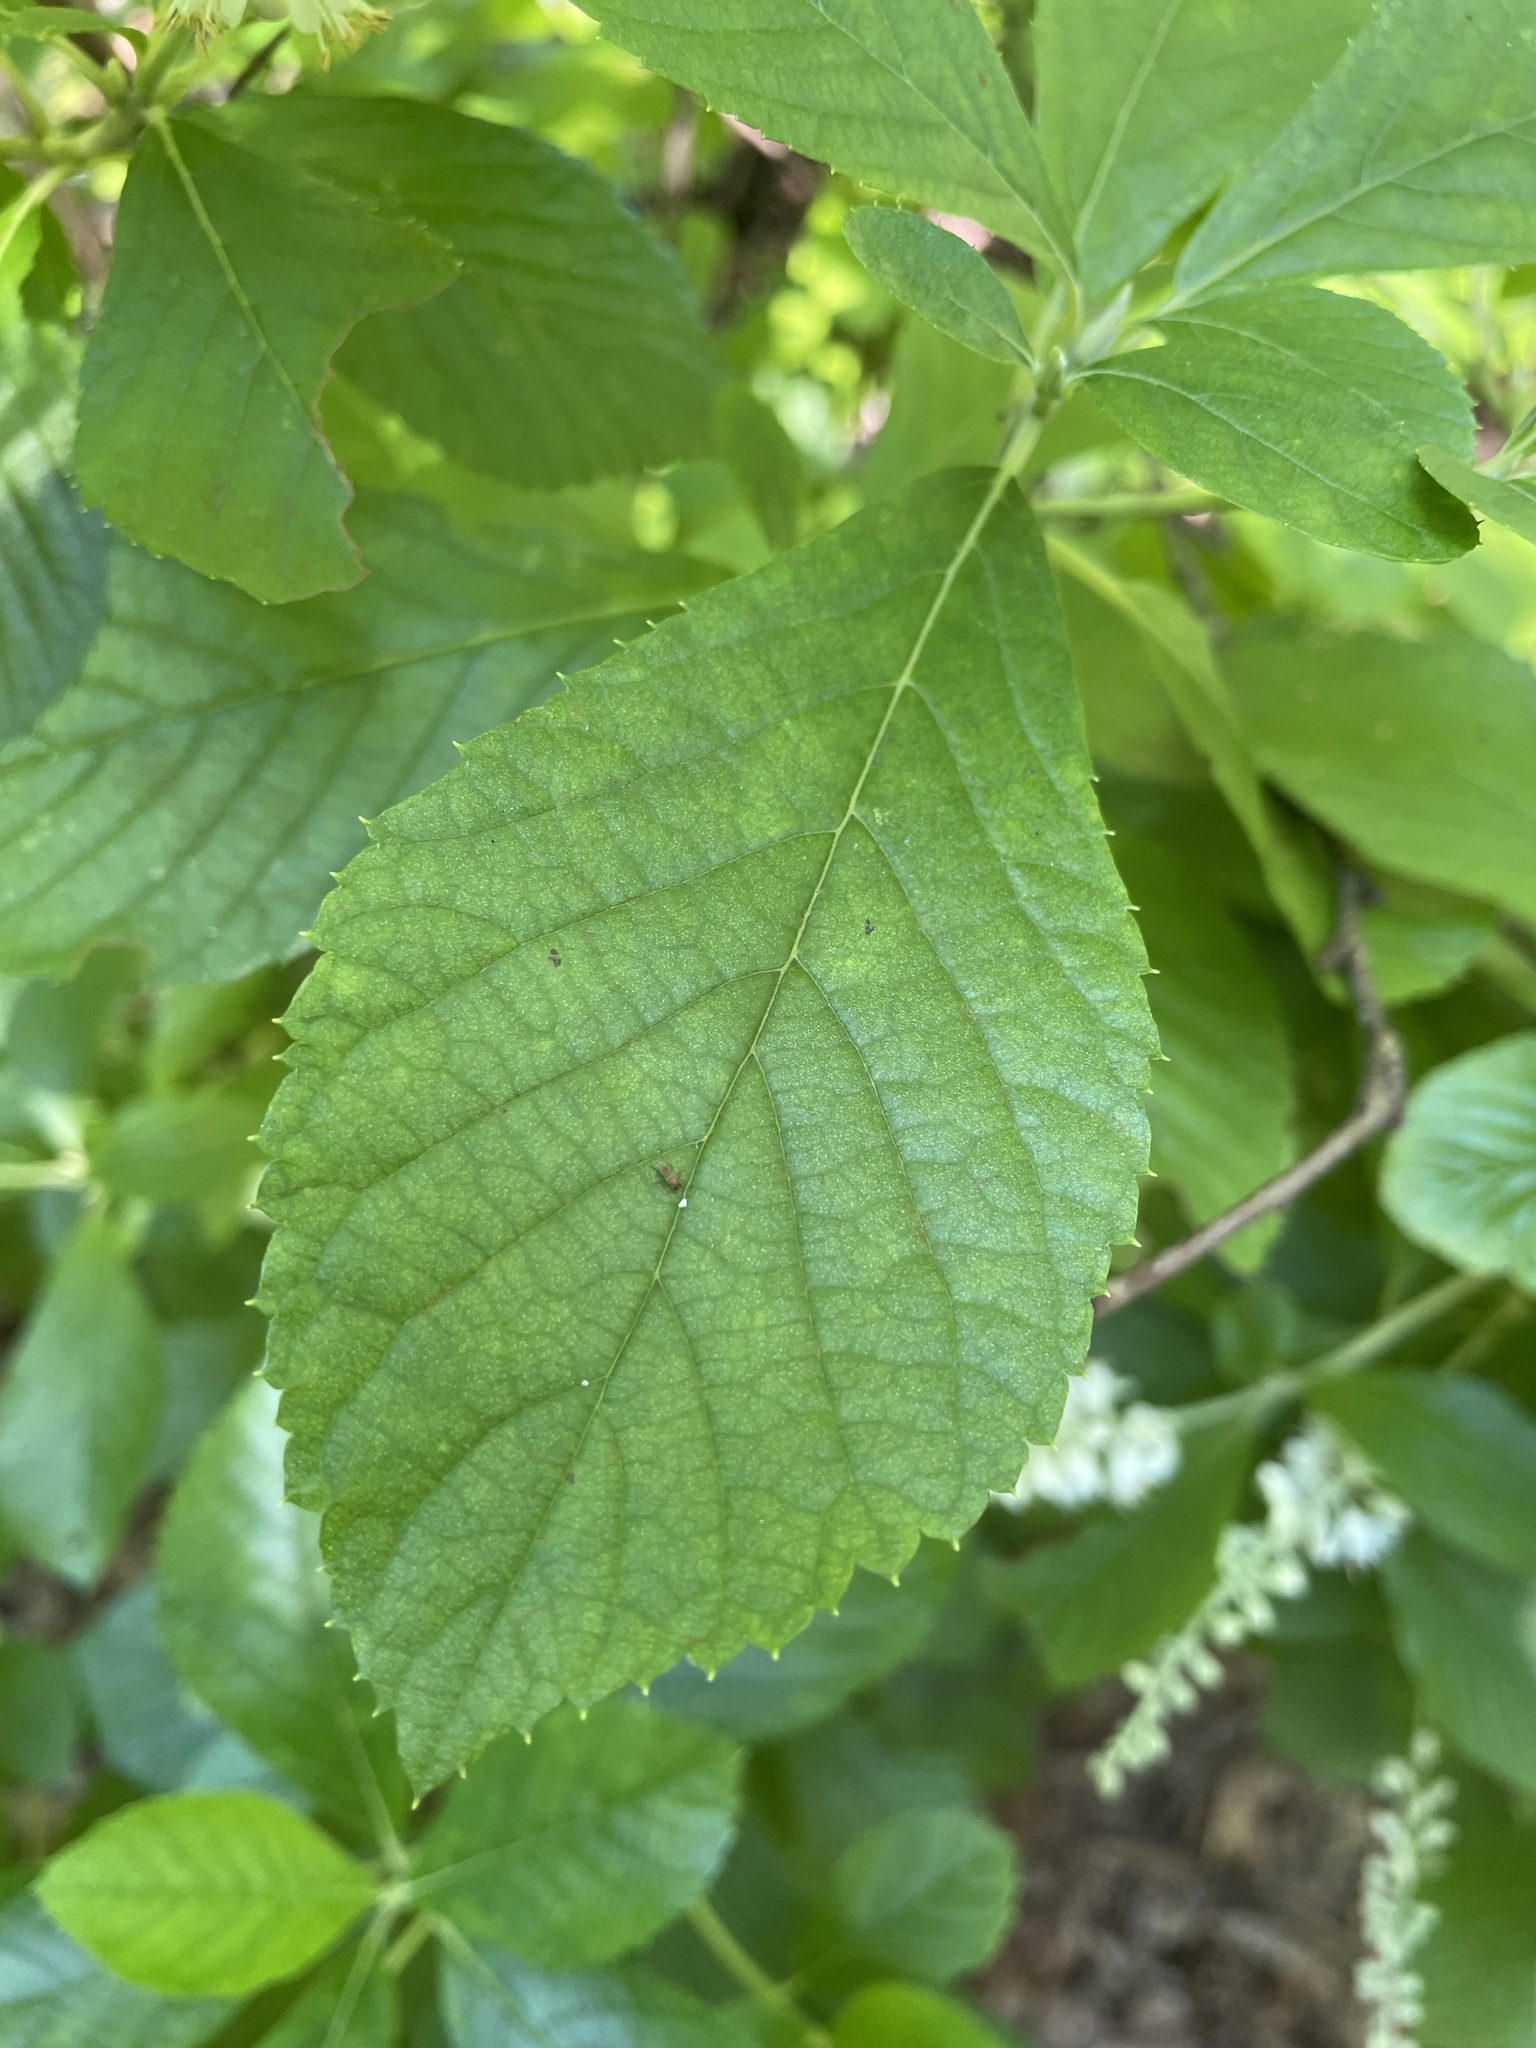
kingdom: Plantae
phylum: Tracheophyta
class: Magnoliopsida
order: Ericales
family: Clethraceae
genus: Clethra
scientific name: Clethra alnifolia
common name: Sweet pepperbush
